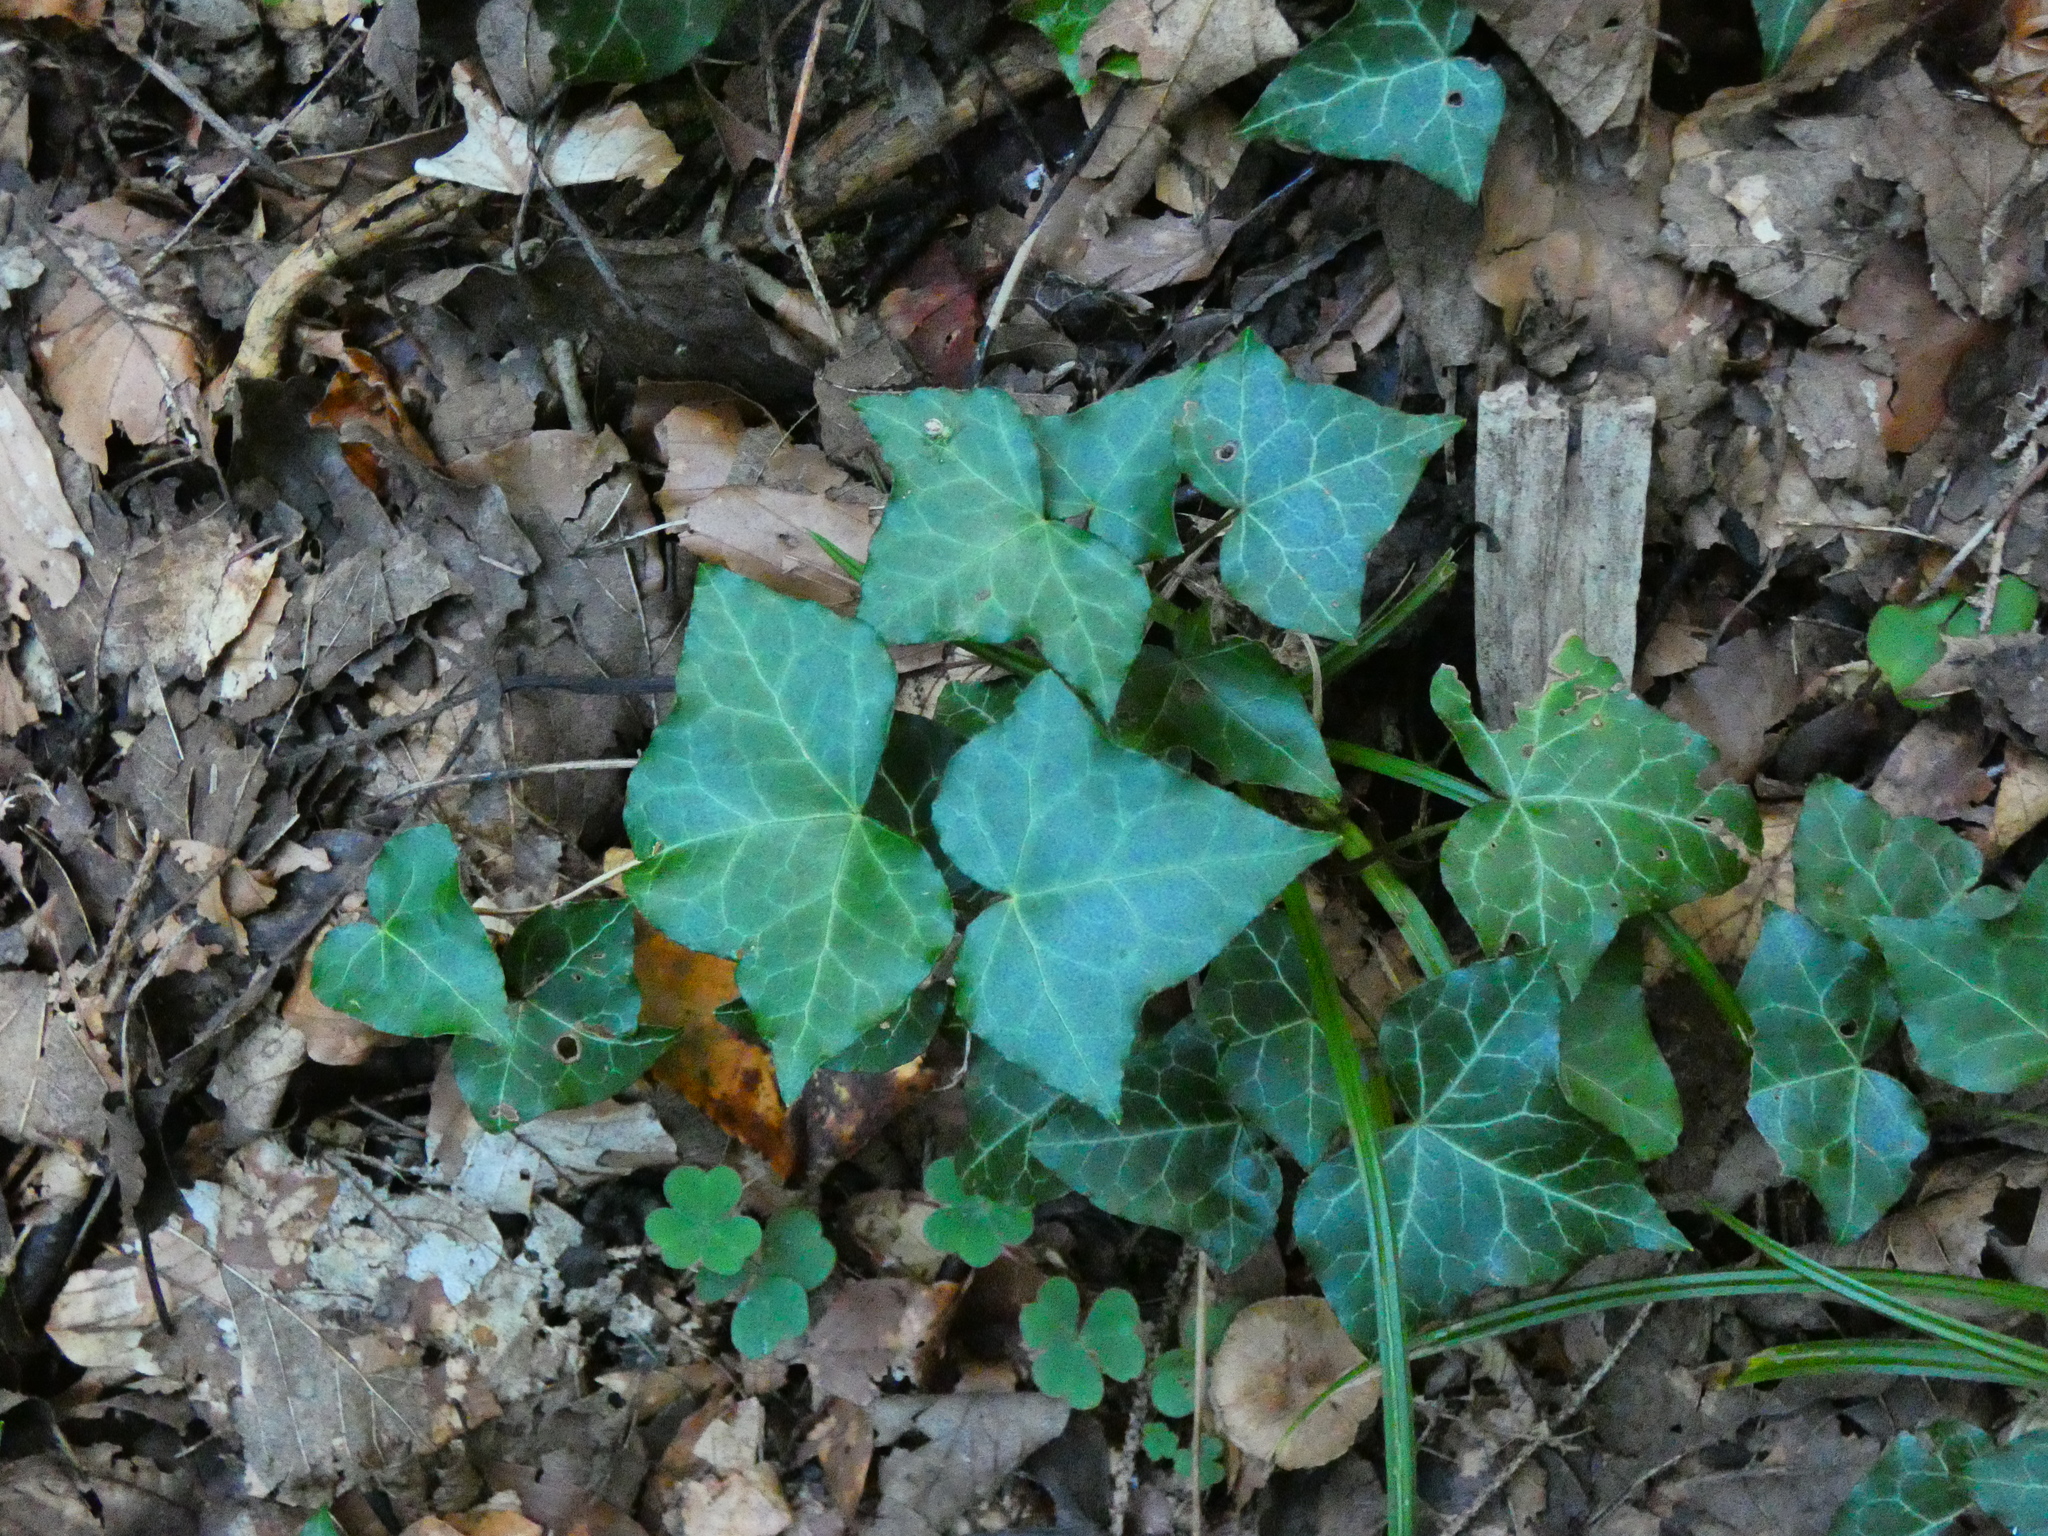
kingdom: Plantae
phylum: Tracheophyta
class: Magnoliopsida
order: Apiales
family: Araliaceae
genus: Hedera
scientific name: Hedera helix
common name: Ivy
